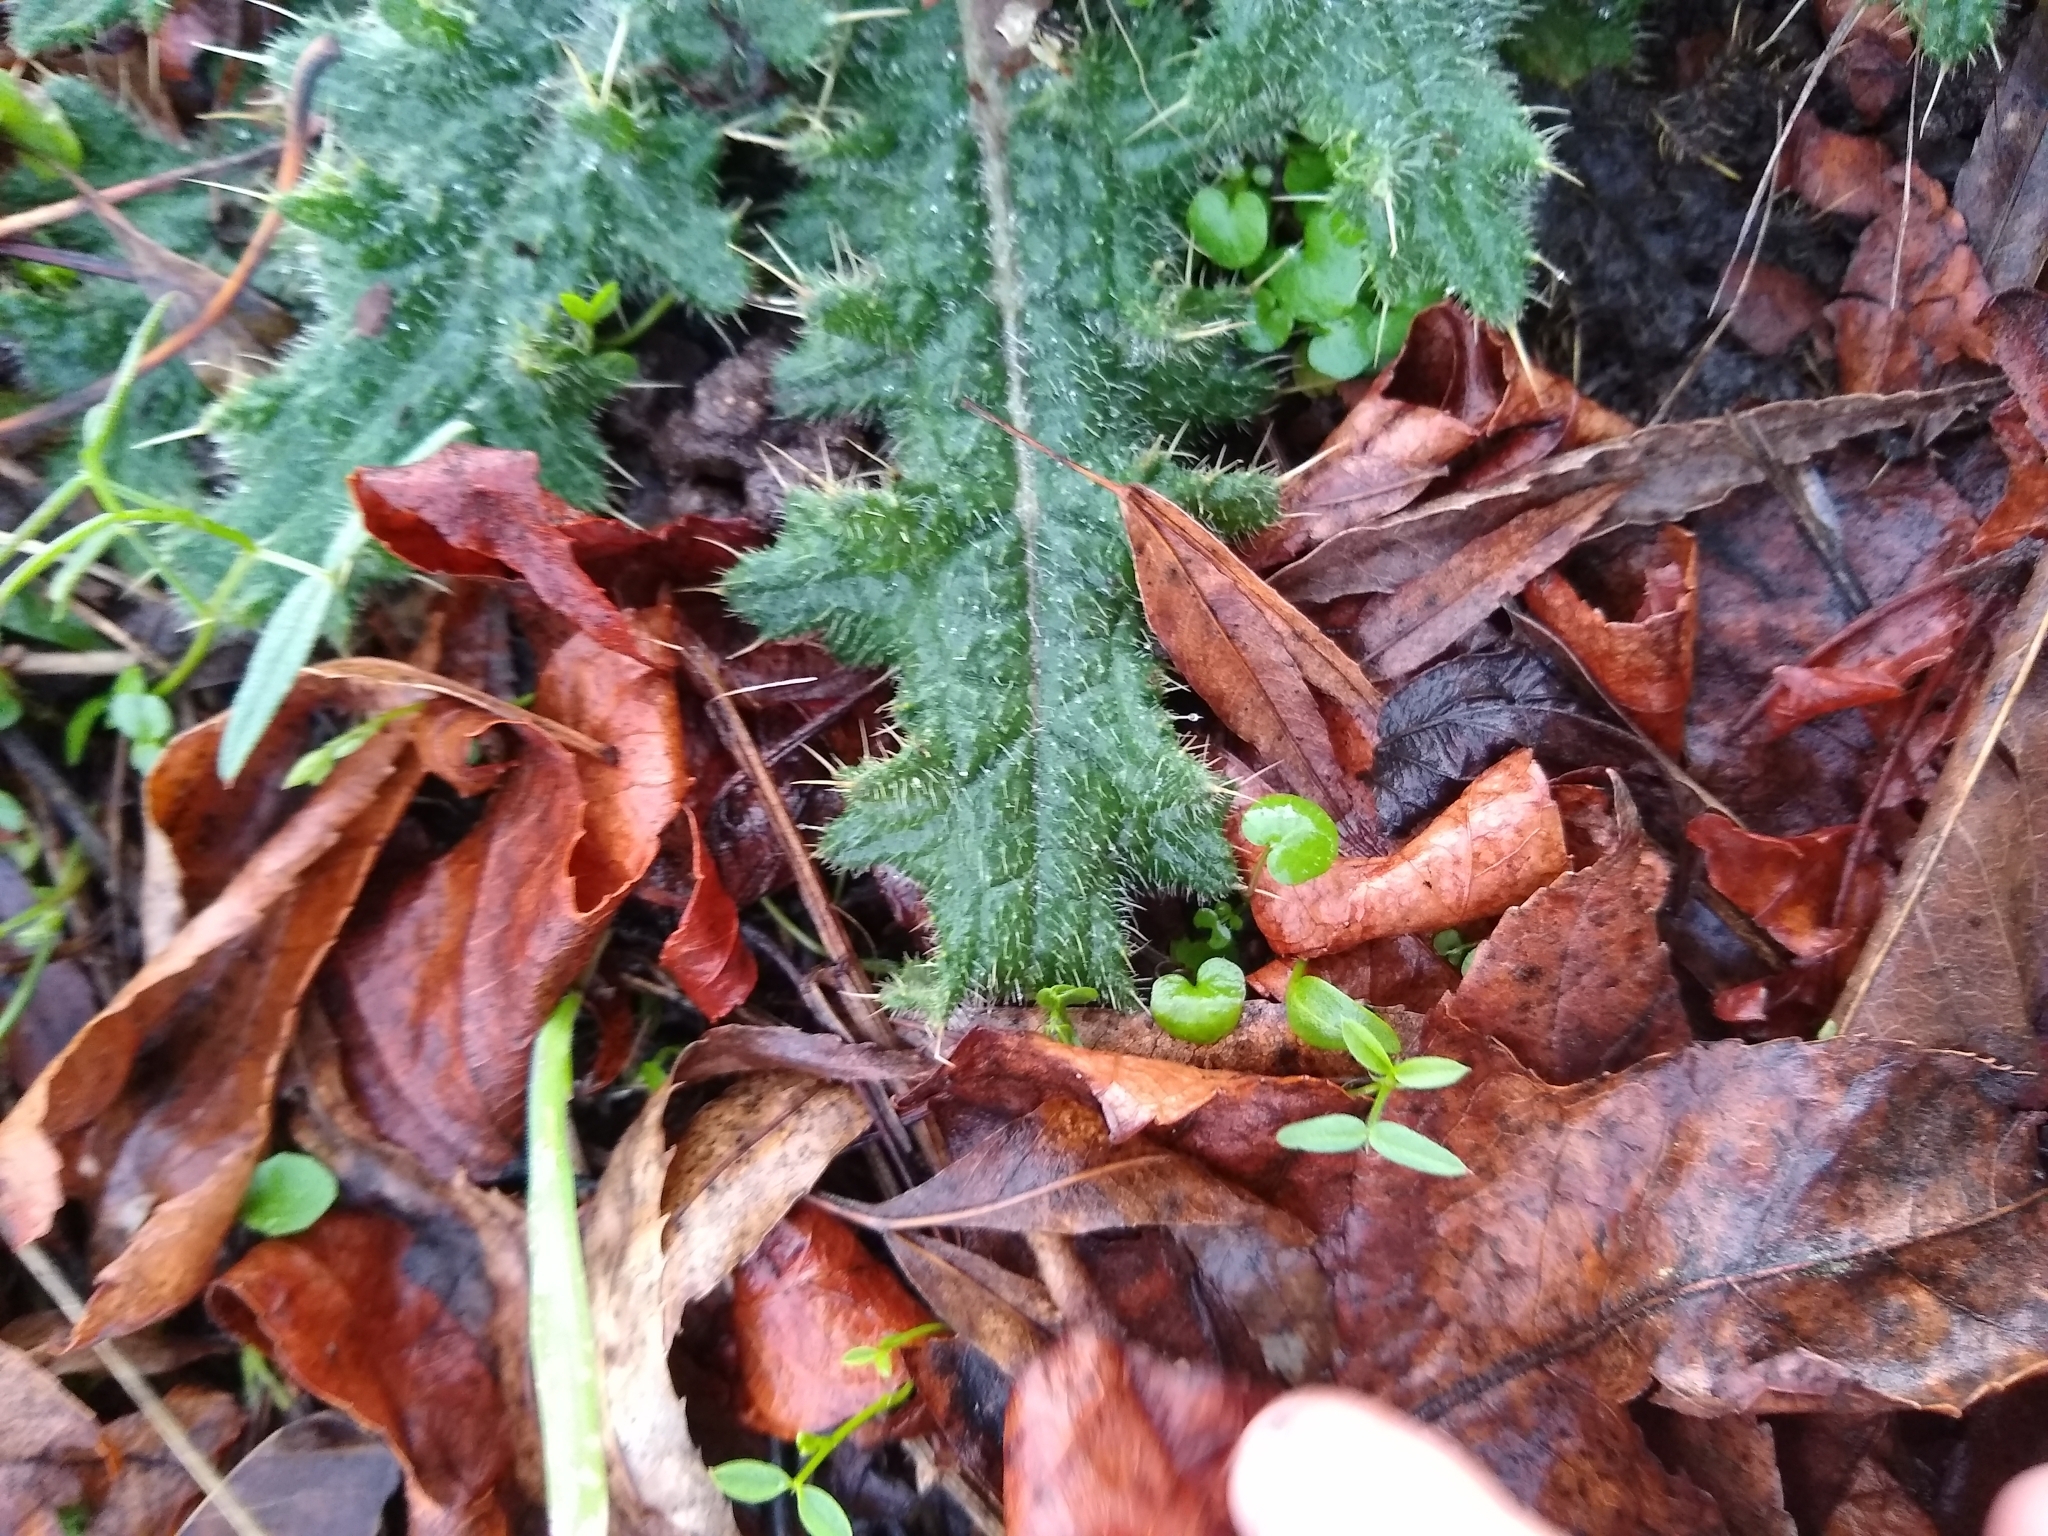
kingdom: Plantae
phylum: Tracheophyta
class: Magnoliopsida
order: Asterales
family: Asteraceae
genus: Cirsium
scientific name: Cirsium vulgare
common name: Bull thistle
